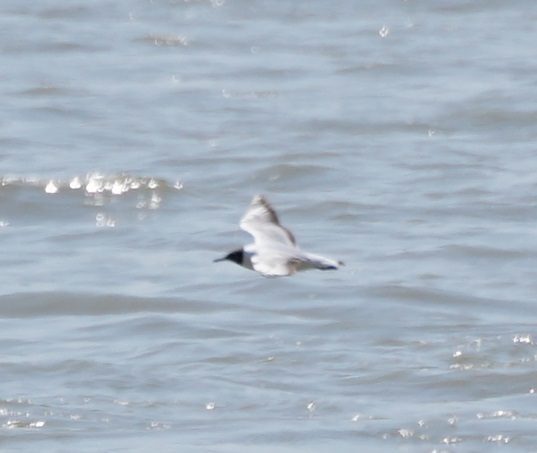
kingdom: Animalia
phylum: Chordata
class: Aves
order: Charadriiformes
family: Laridae
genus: Chroicocephalus
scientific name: Chroicocephalus ridibundus
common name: Black-headed gull
